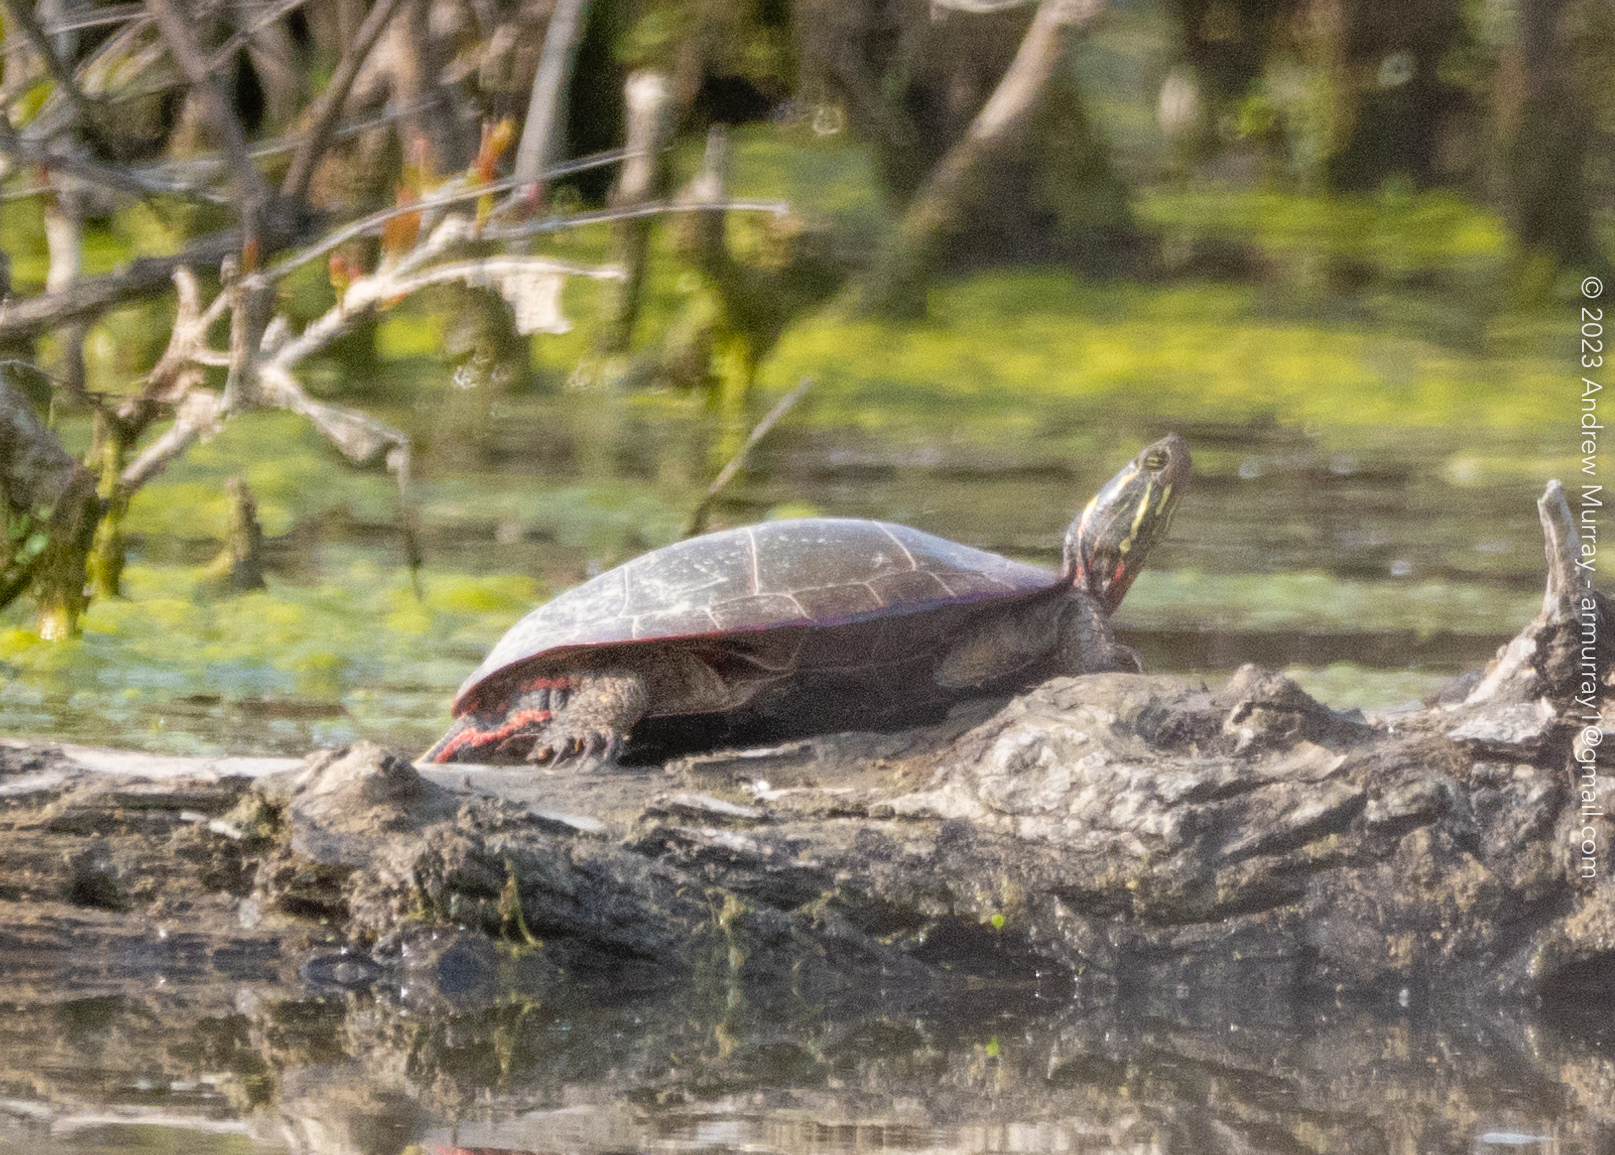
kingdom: Animalia
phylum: Chordata
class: Testudines
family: Emydidae
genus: Chrysemys
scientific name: Chrysemys picta
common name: Painted turtle
